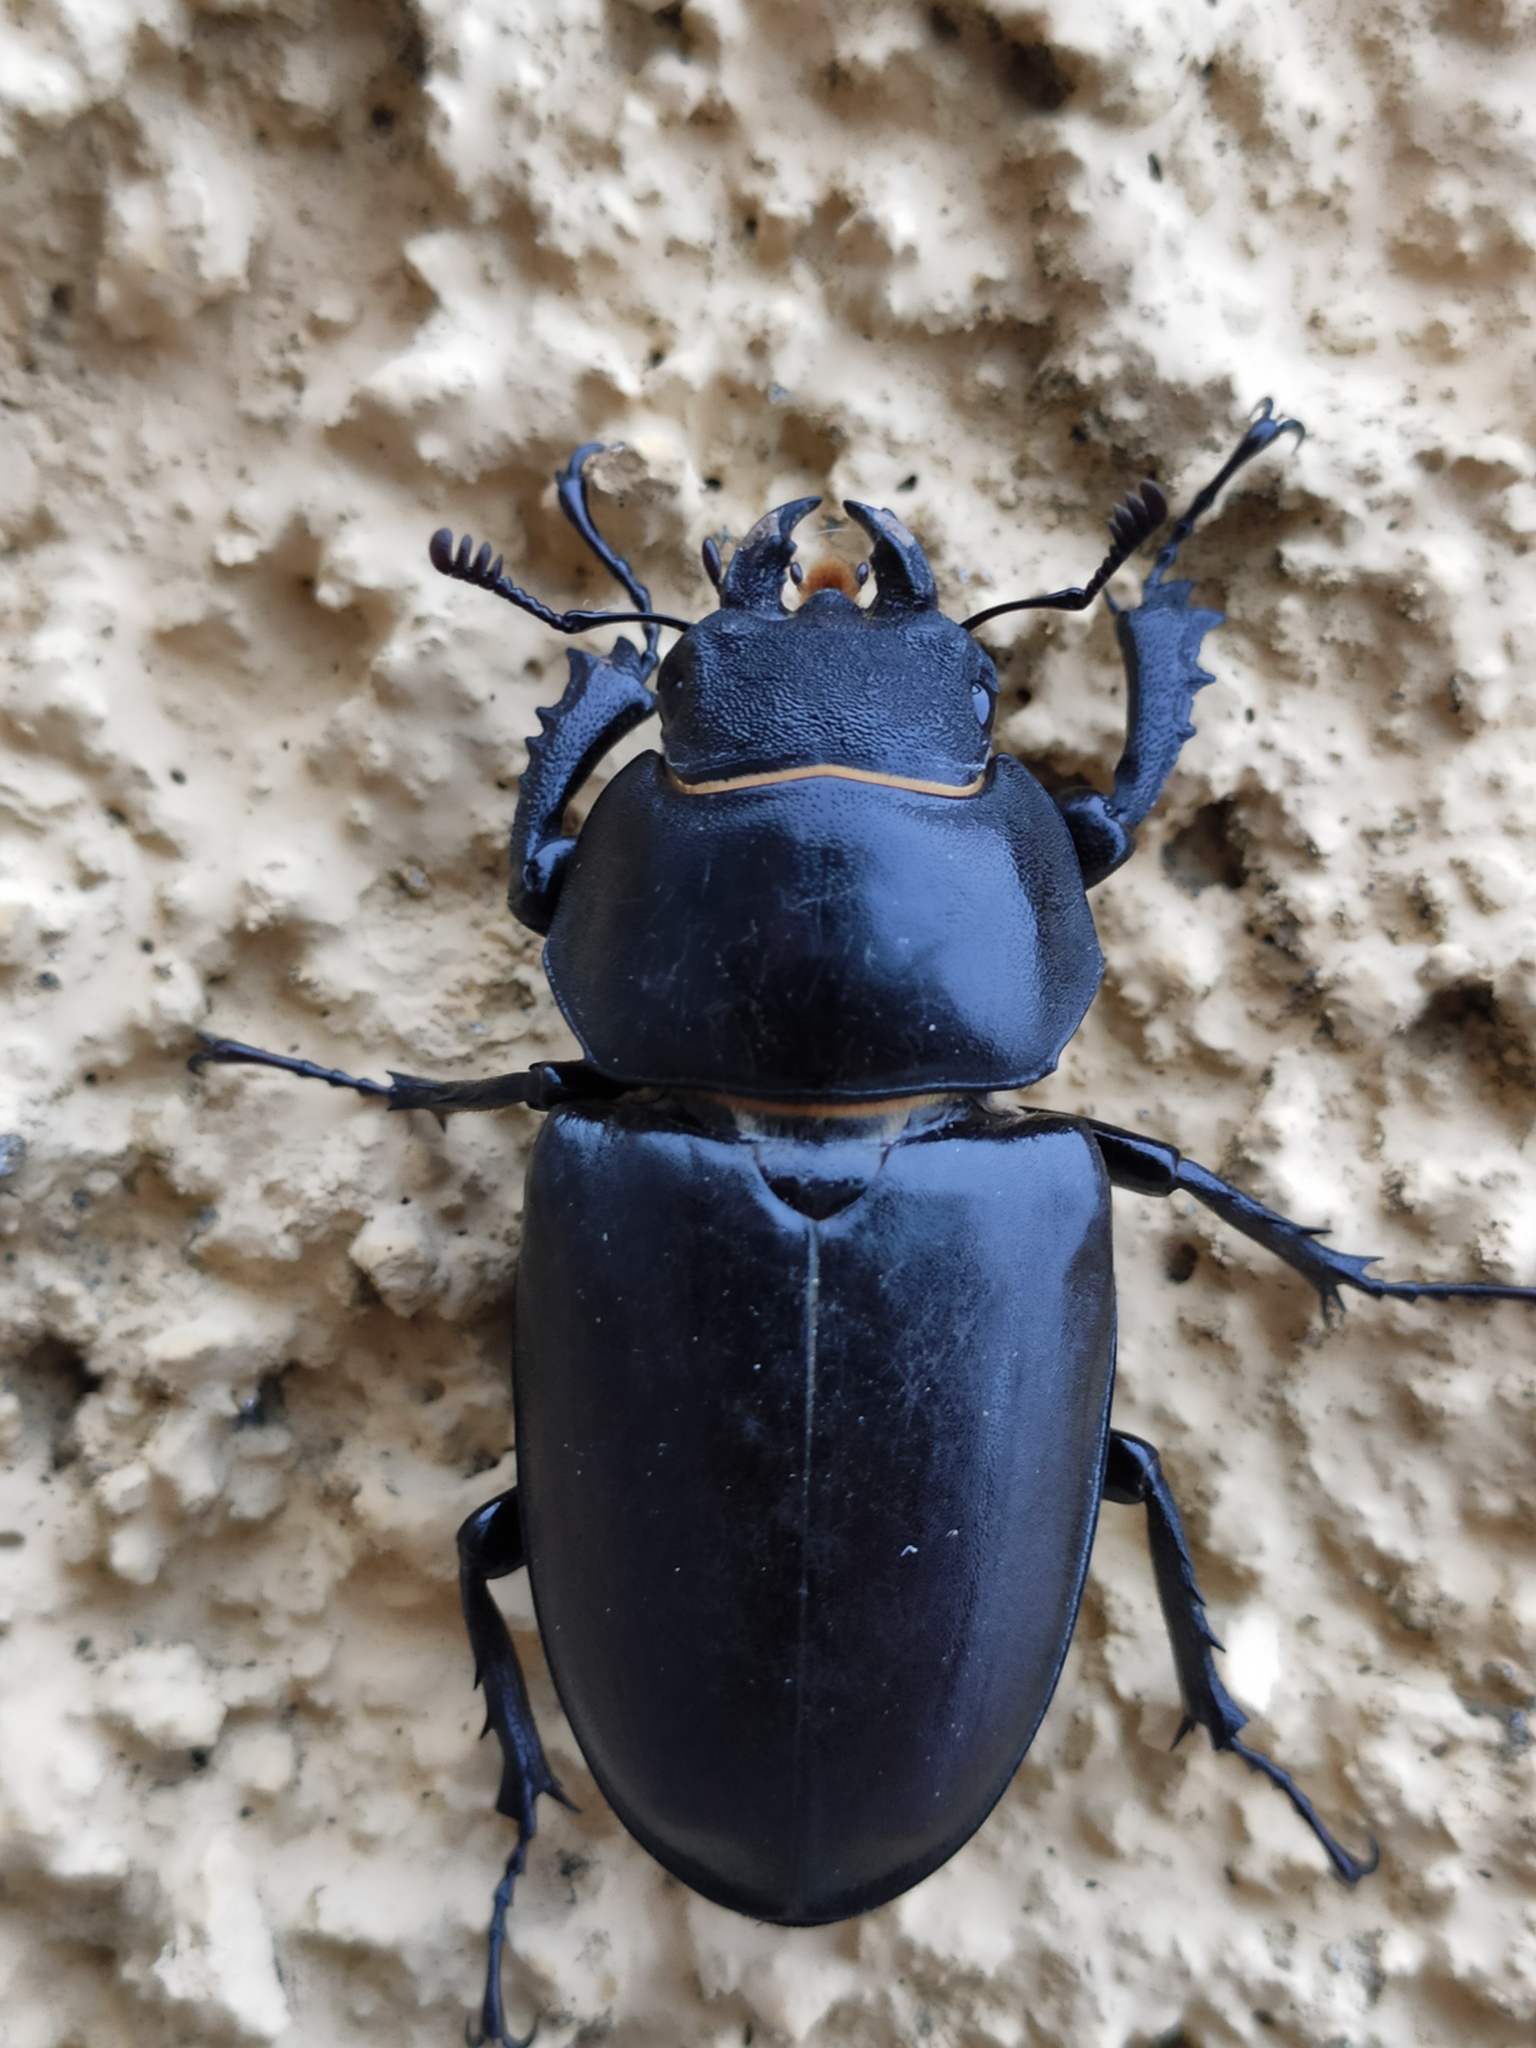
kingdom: Animalia
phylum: Arthropoda
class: Insecta
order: Coleoptera
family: Lucanidae
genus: Lucanus
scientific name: Lucanus cervus
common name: Stag beetle
